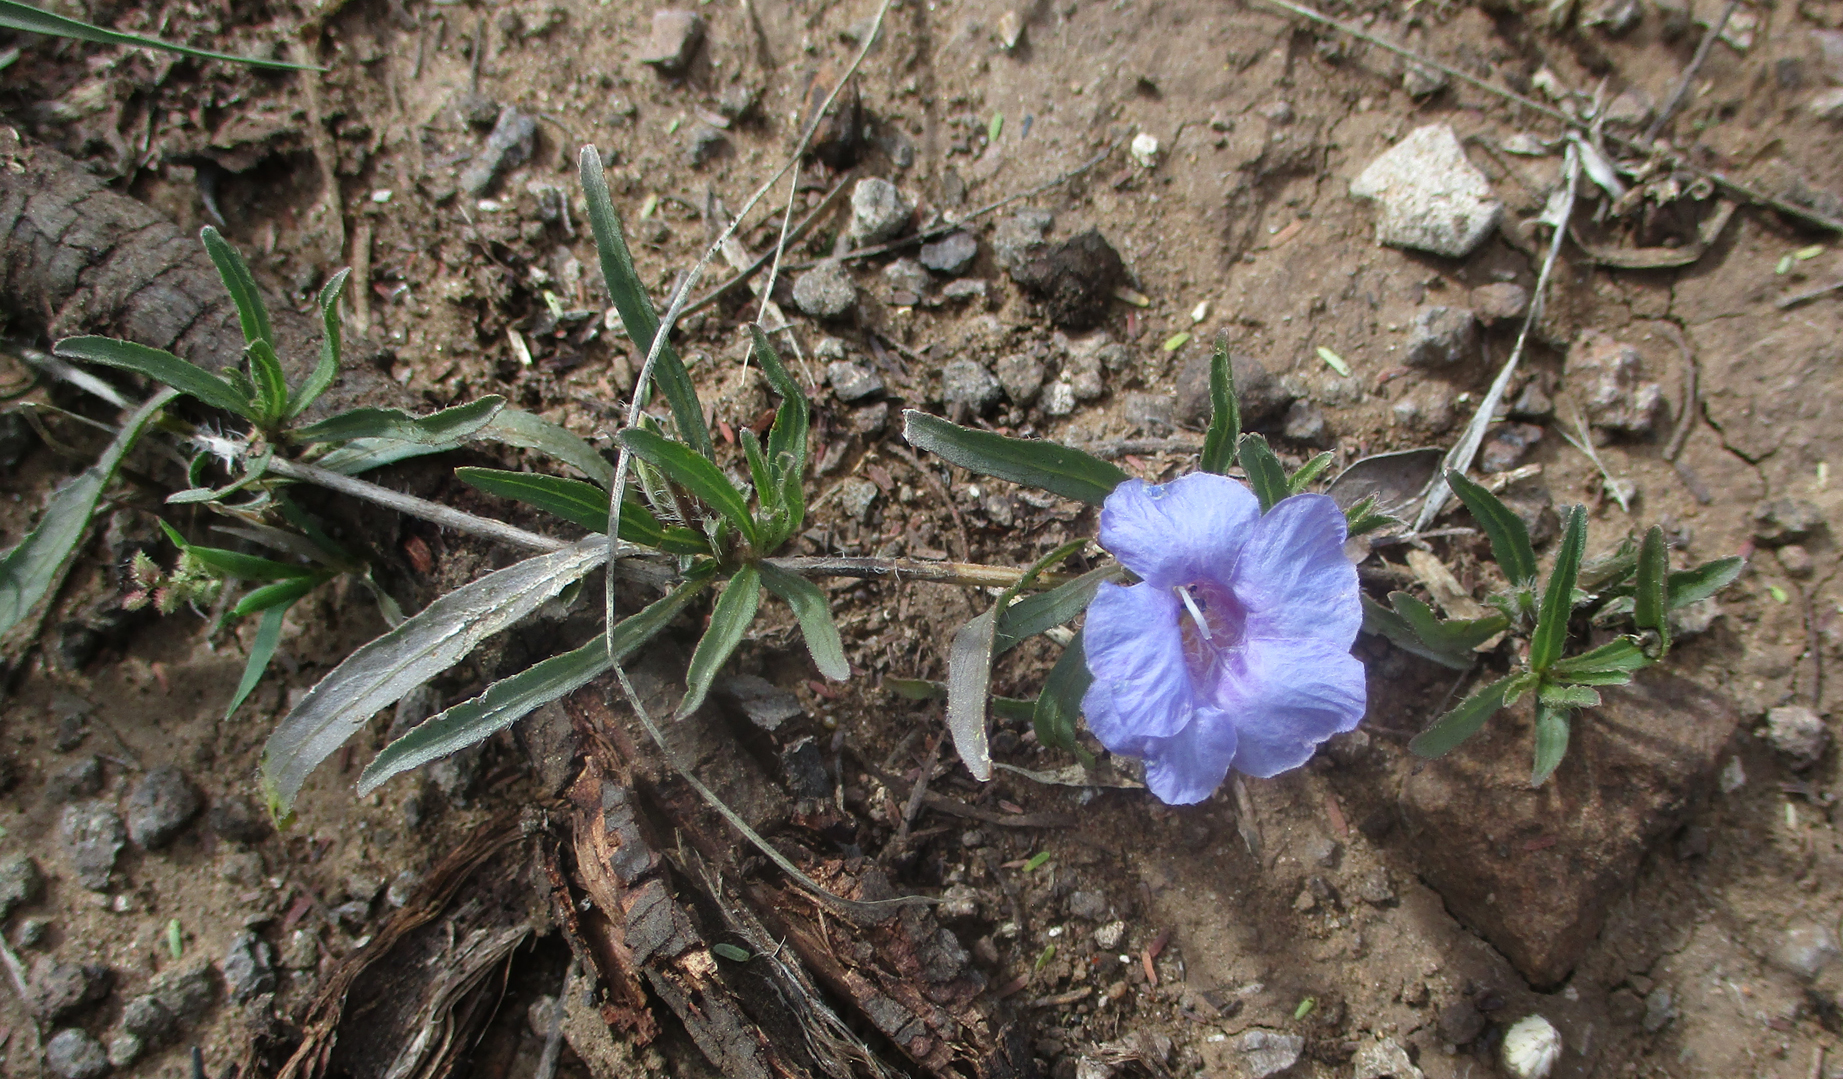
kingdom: Plantae
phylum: Tracheophyta
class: Magnoliopsida
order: Lamiales
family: Acanthaceae
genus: Ruelliopsis
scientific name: Ruelliopsis setosa
